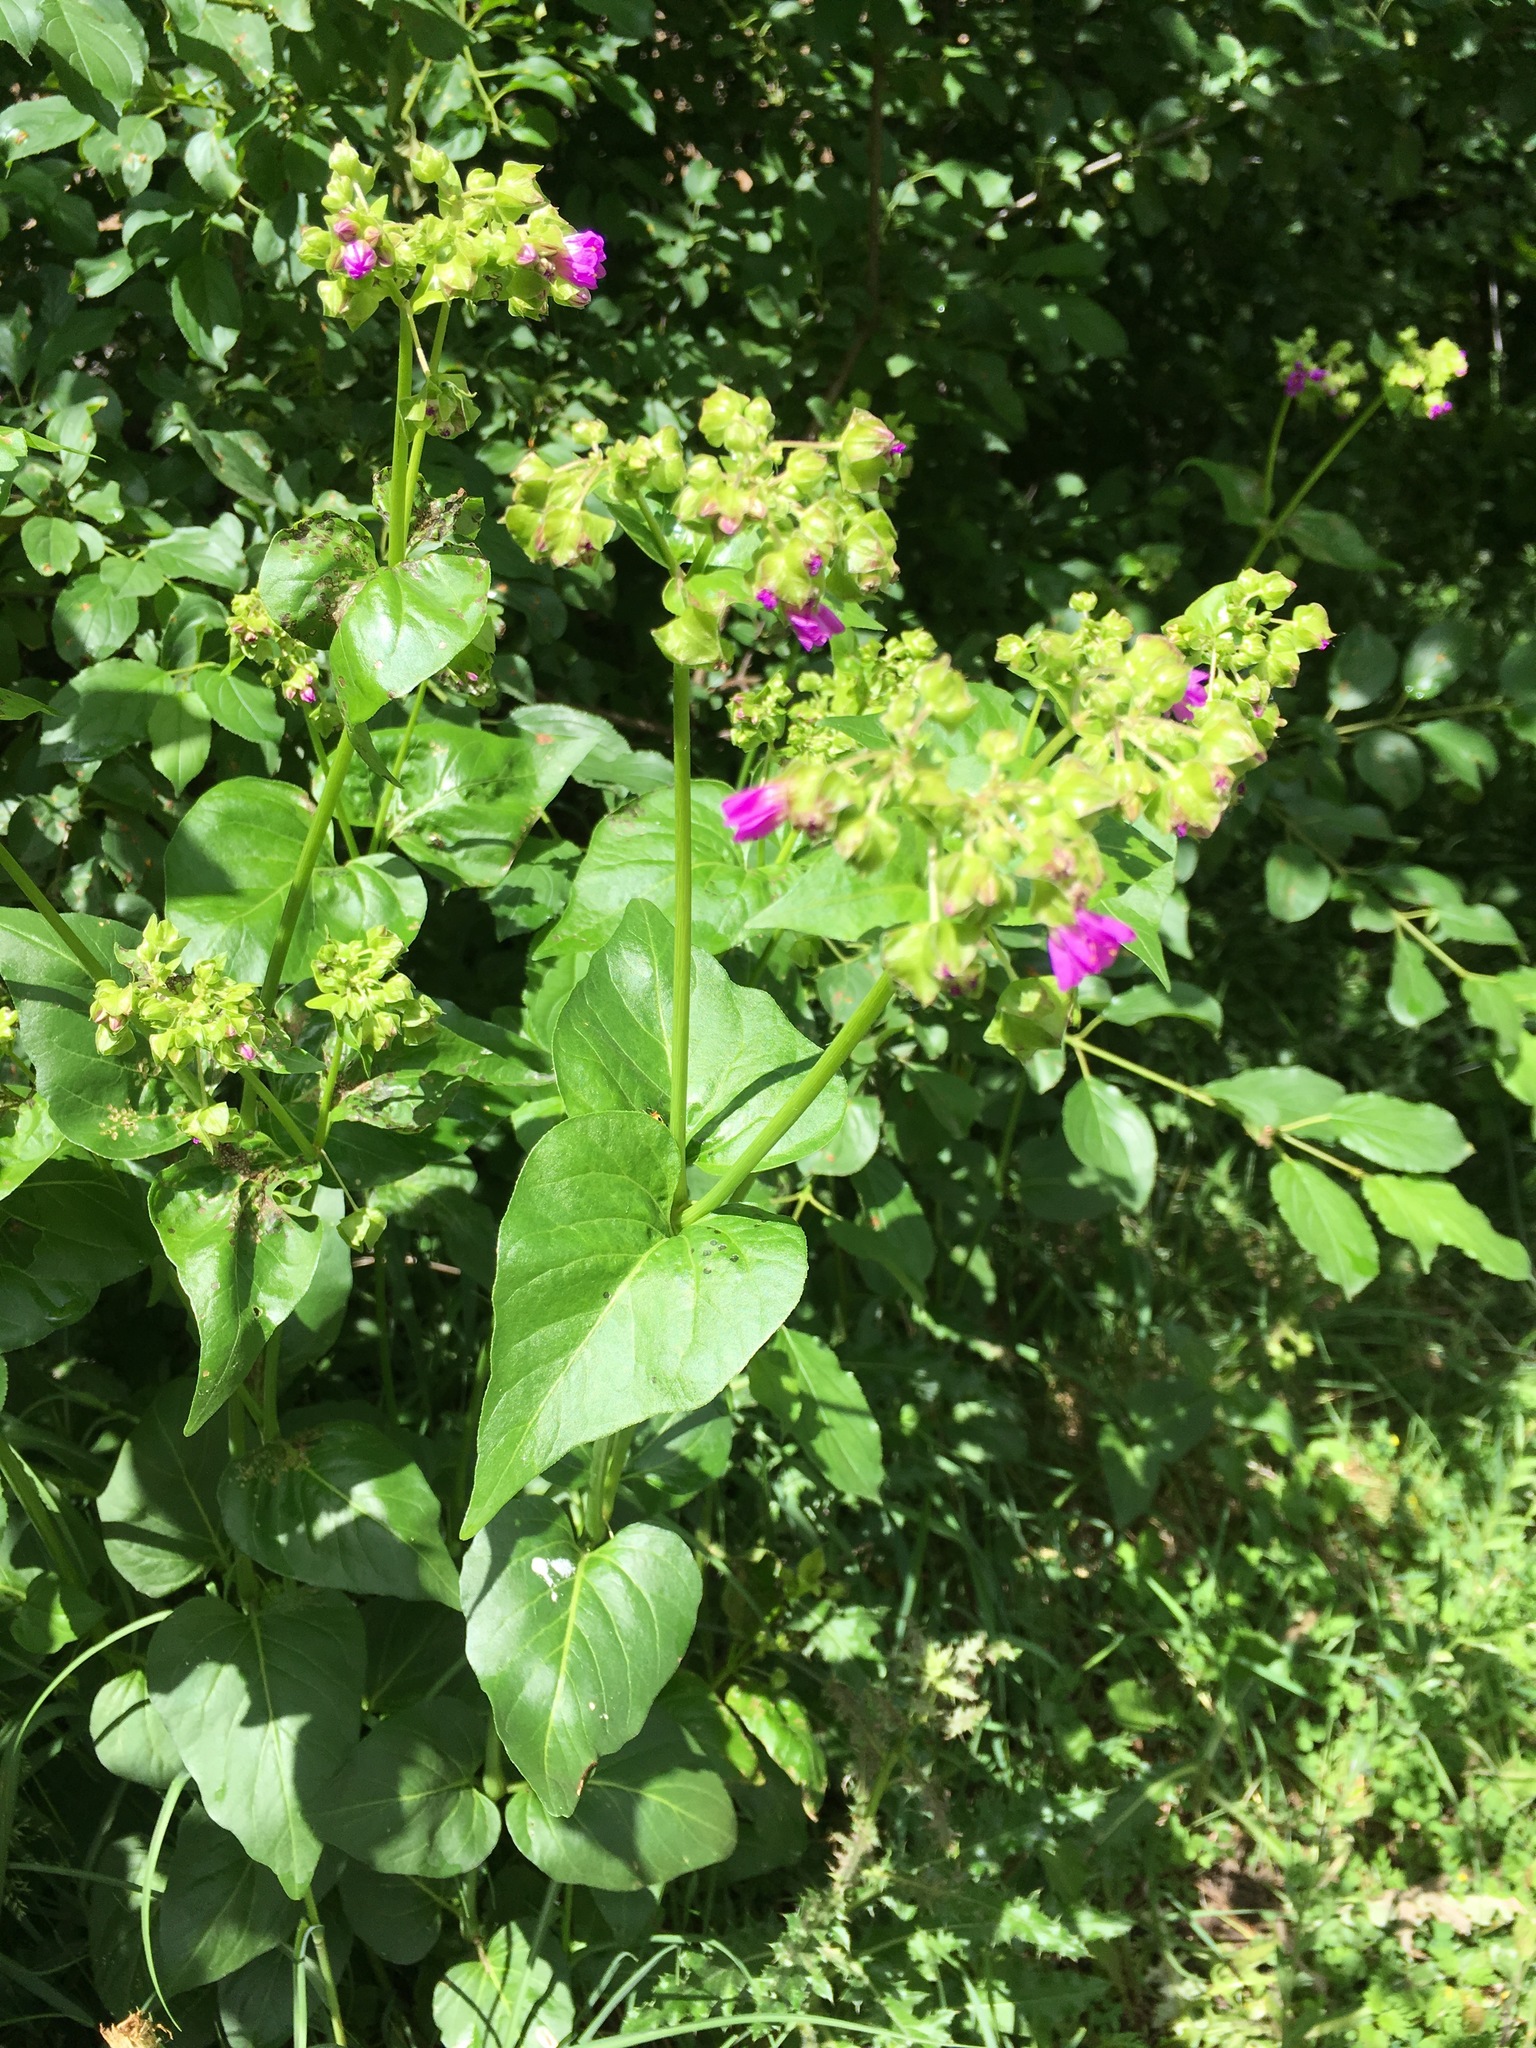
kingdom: Plantae
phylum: Tracheophyta
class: Magnoliopsida
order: Caryophyllales
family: Nyctaginaceae
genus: Mirabilis
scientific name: Mirabilis nyctaginea
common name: Umbrella wort
